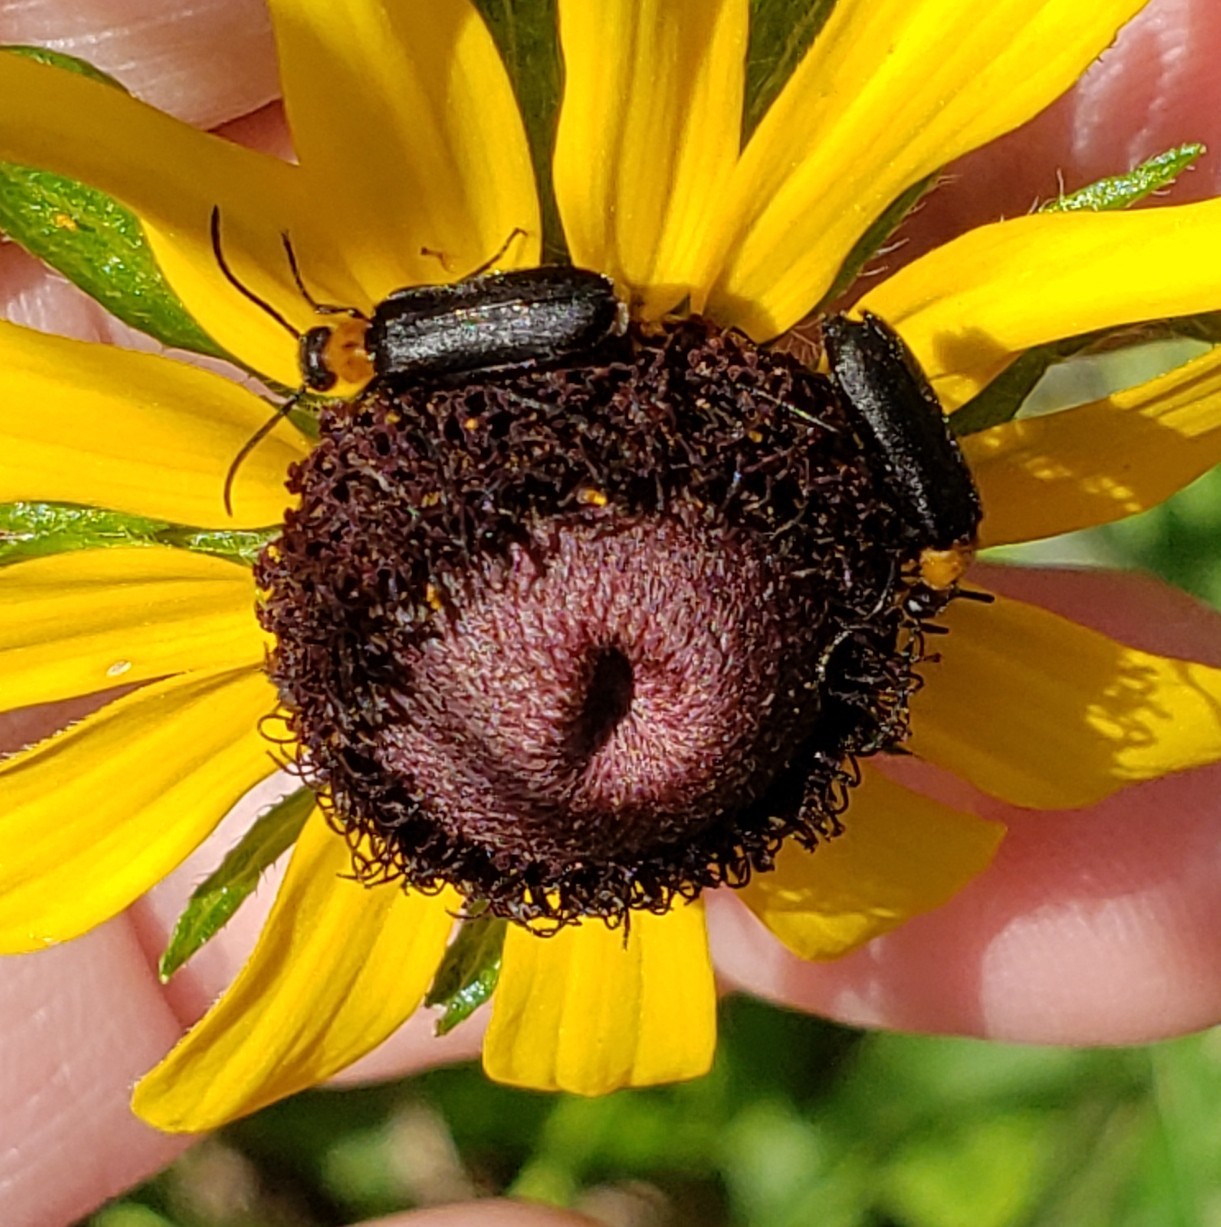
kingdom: Animalia
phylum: Arthropoda
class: Insecta
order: Coleoptera
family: Meloidae
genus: Nemognatha
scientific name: Nemognatha nemorensis
